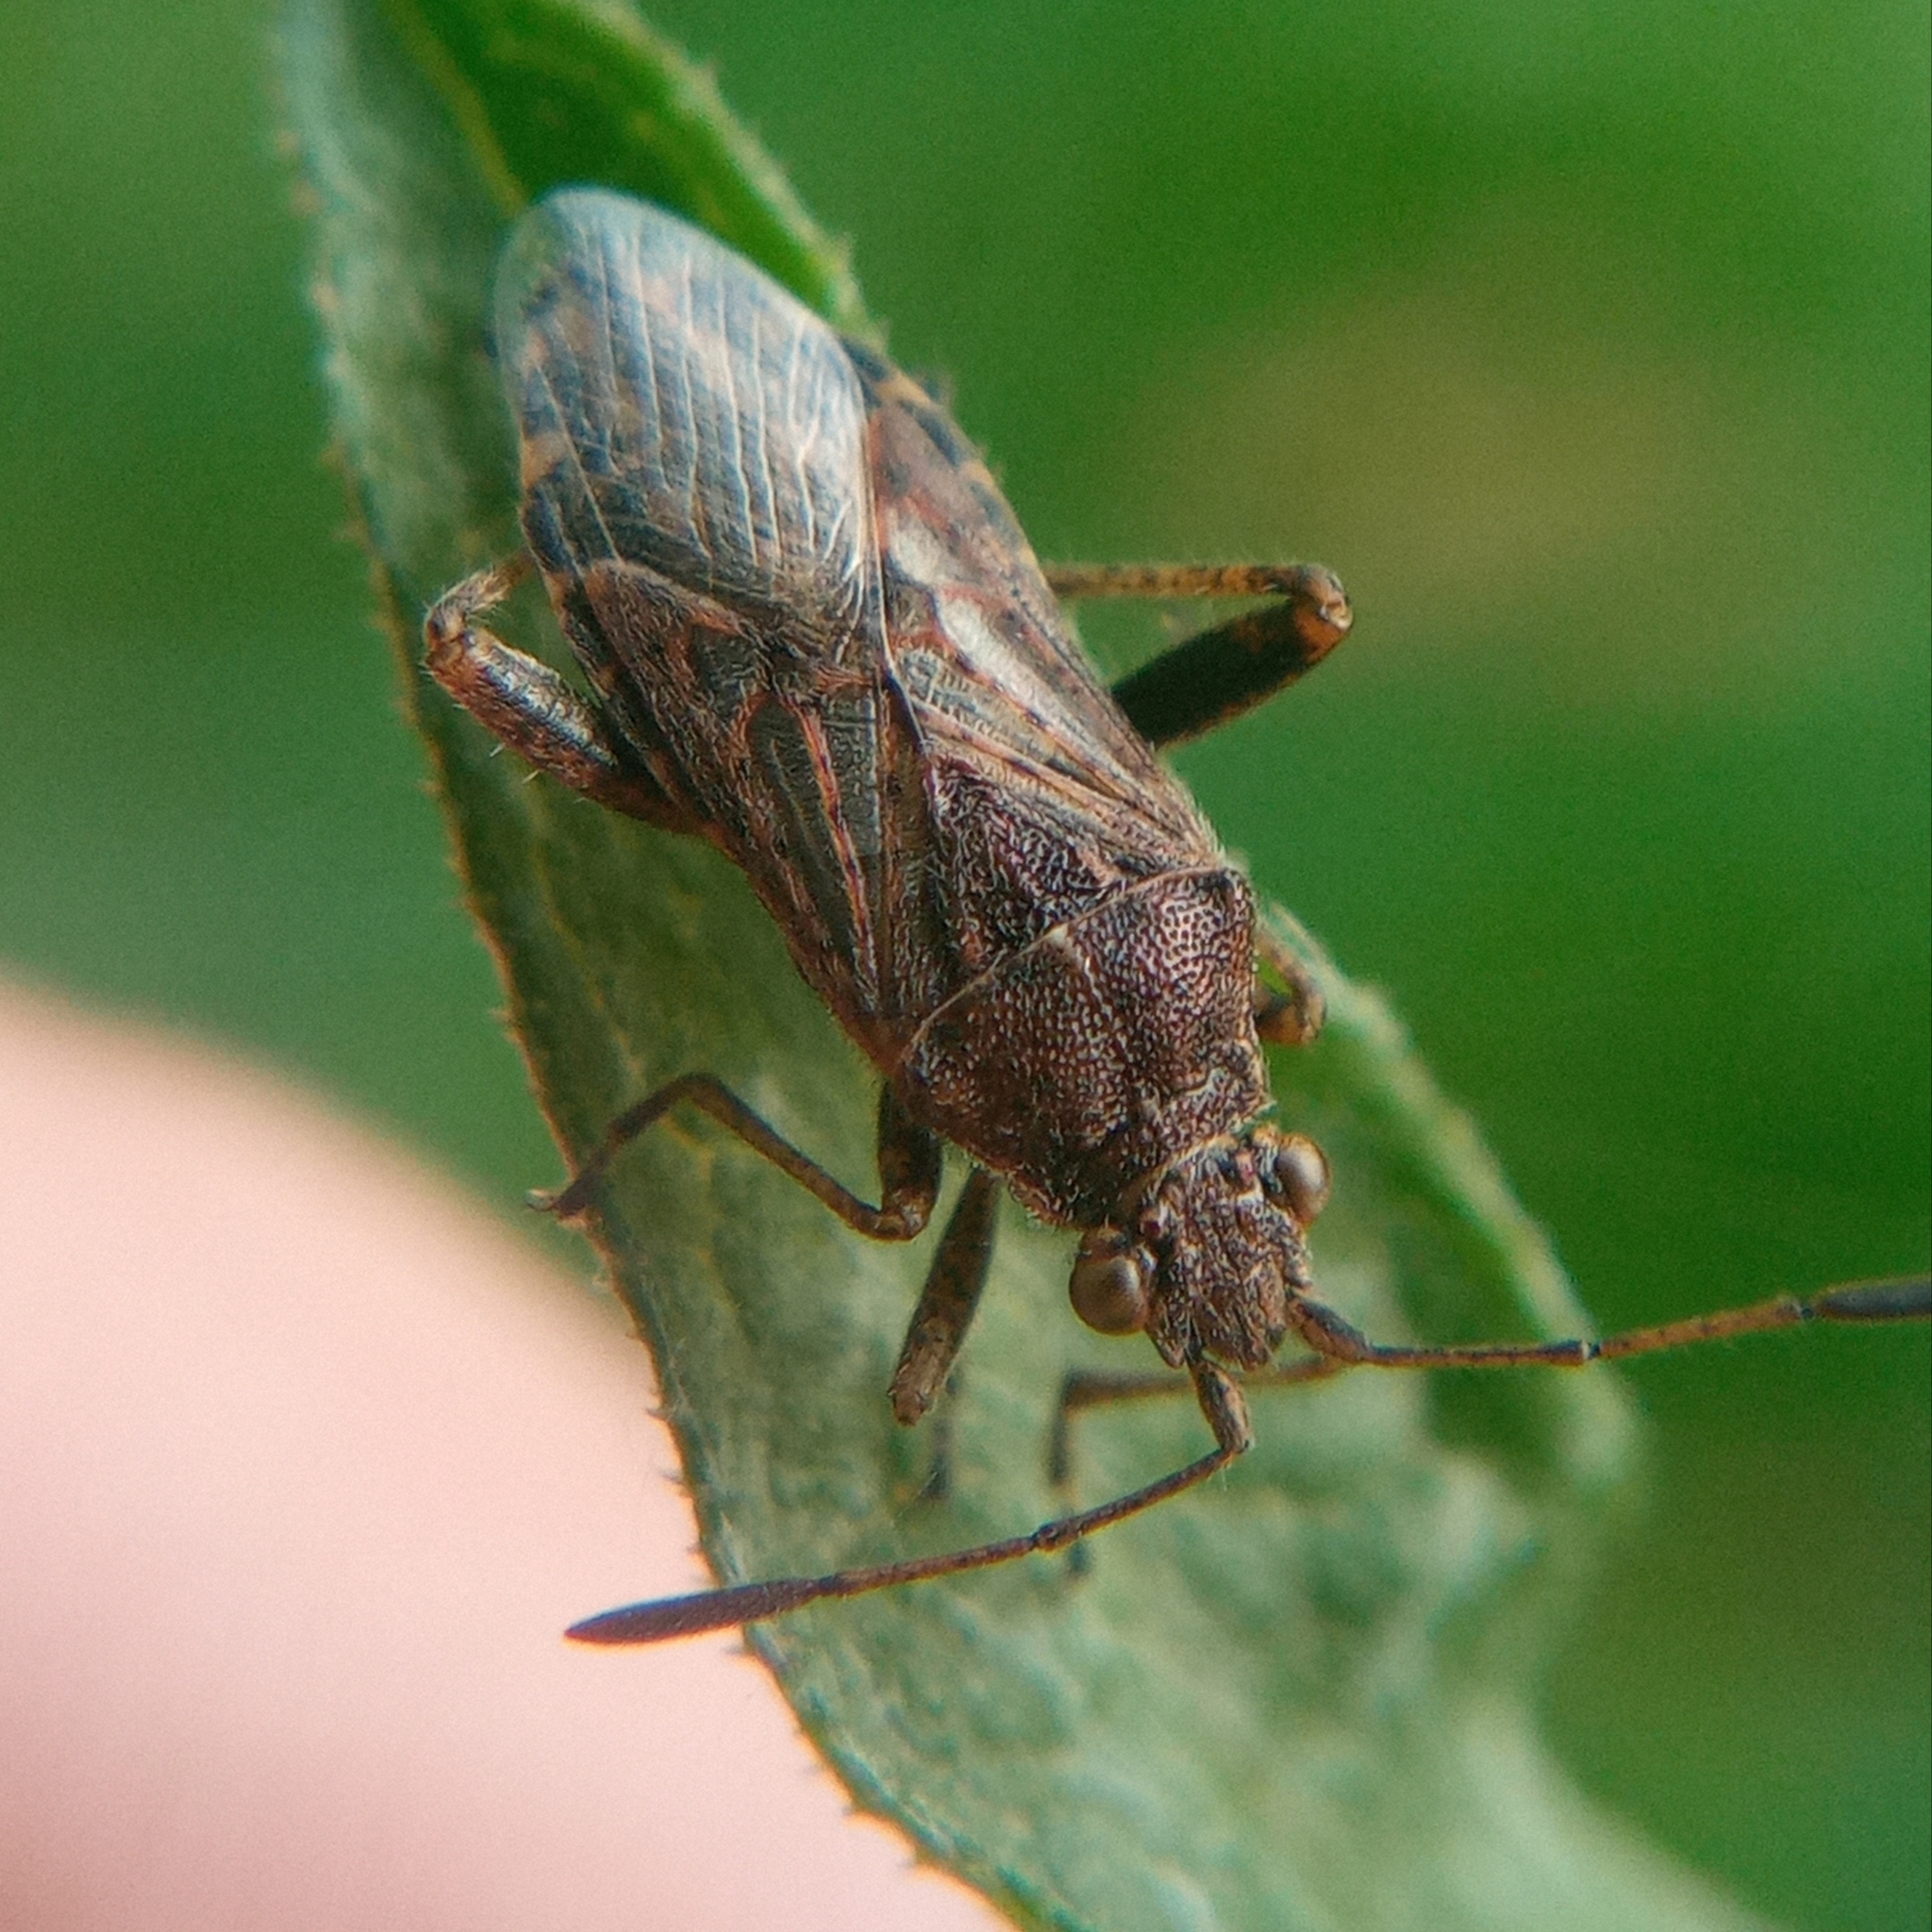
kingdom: Animalia
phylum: Arthropoda
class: Insecta
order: Hemiptera
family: Rhopalidae
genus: Stictopleurus
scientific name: Stictopleurus punctatonervosus
